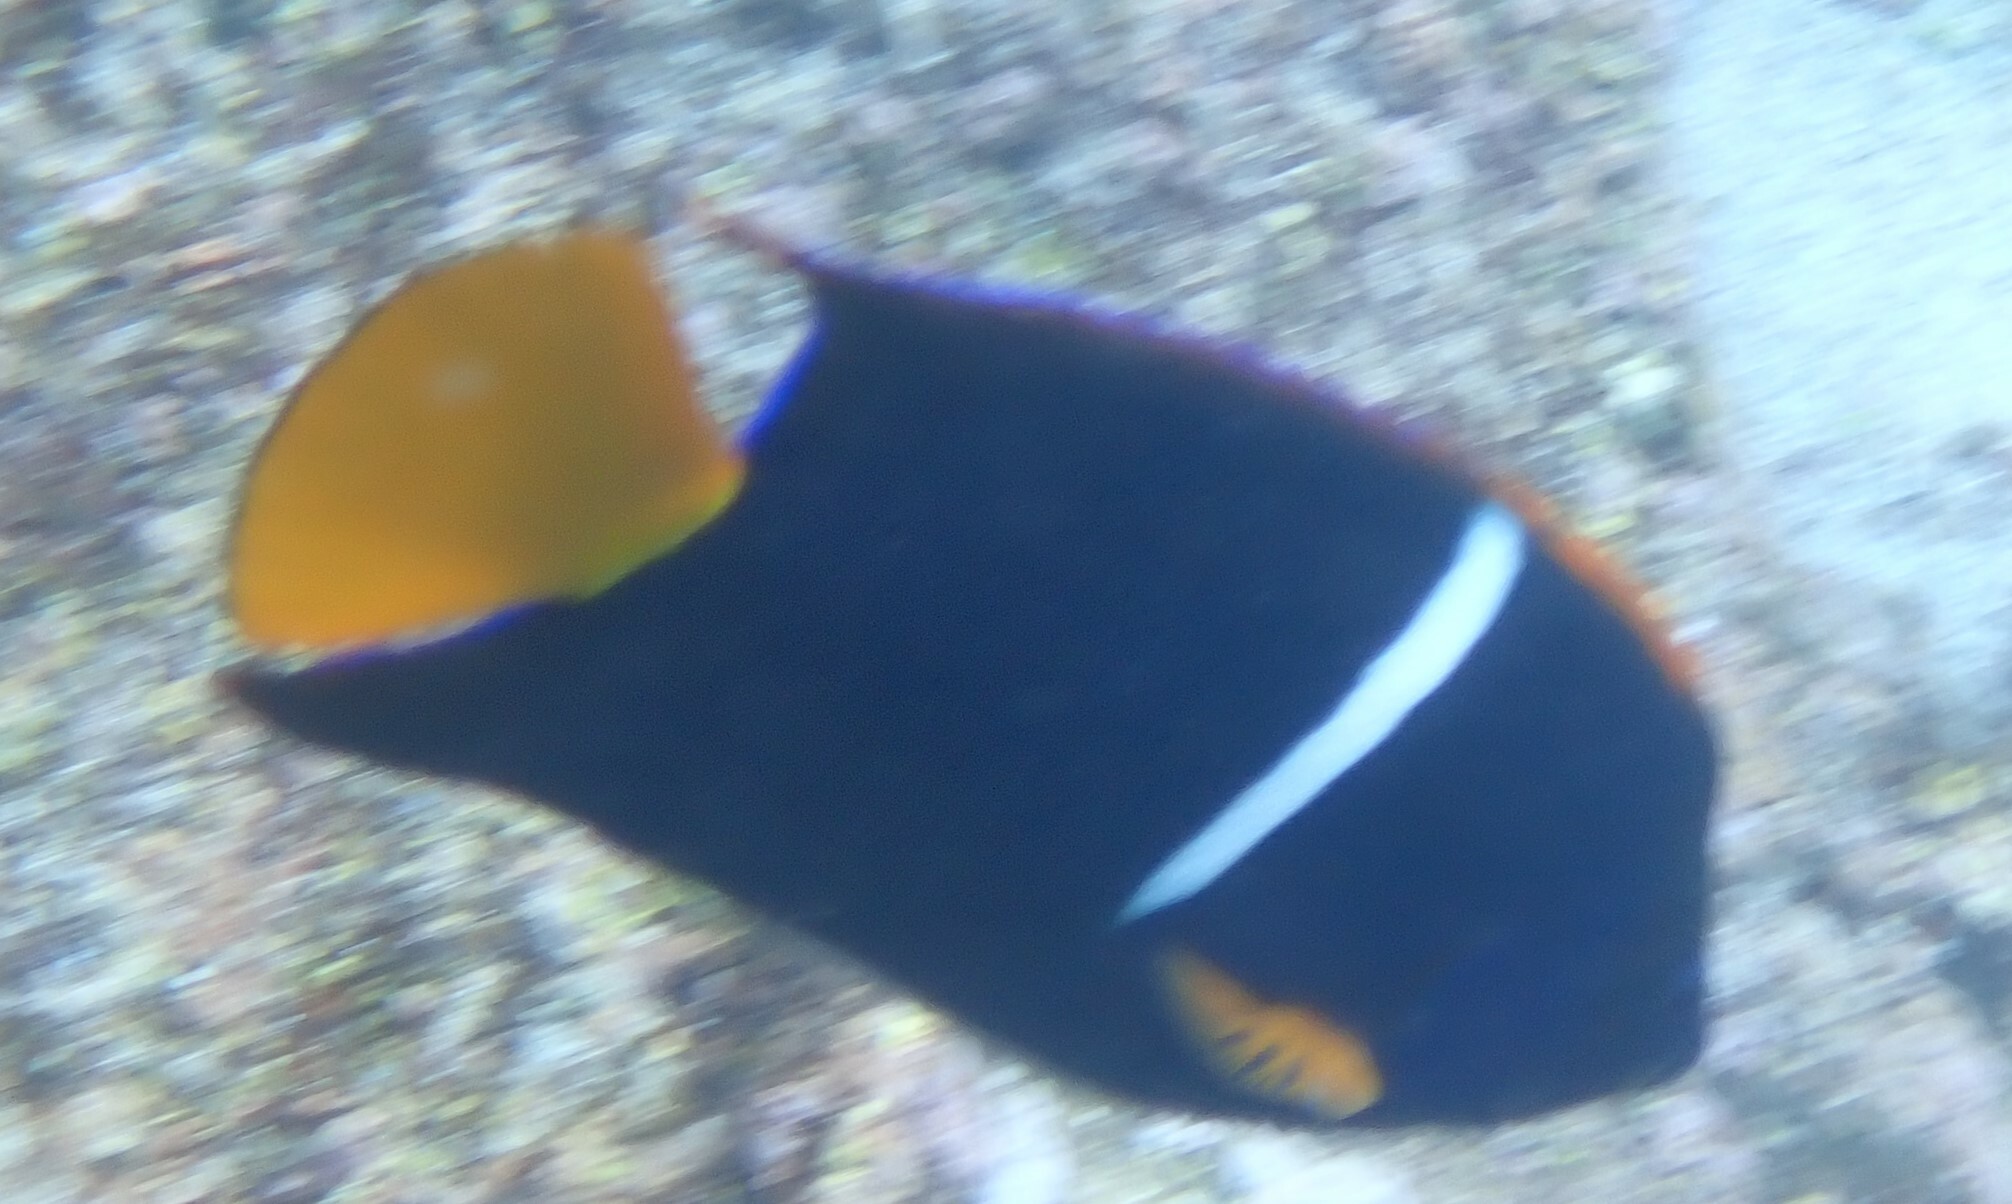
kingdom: Animalia
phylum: Chordata
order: Perciformes
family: Pomacanthidae
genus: Holacanthus
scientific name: Holacanthus passer
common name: King angelfish
